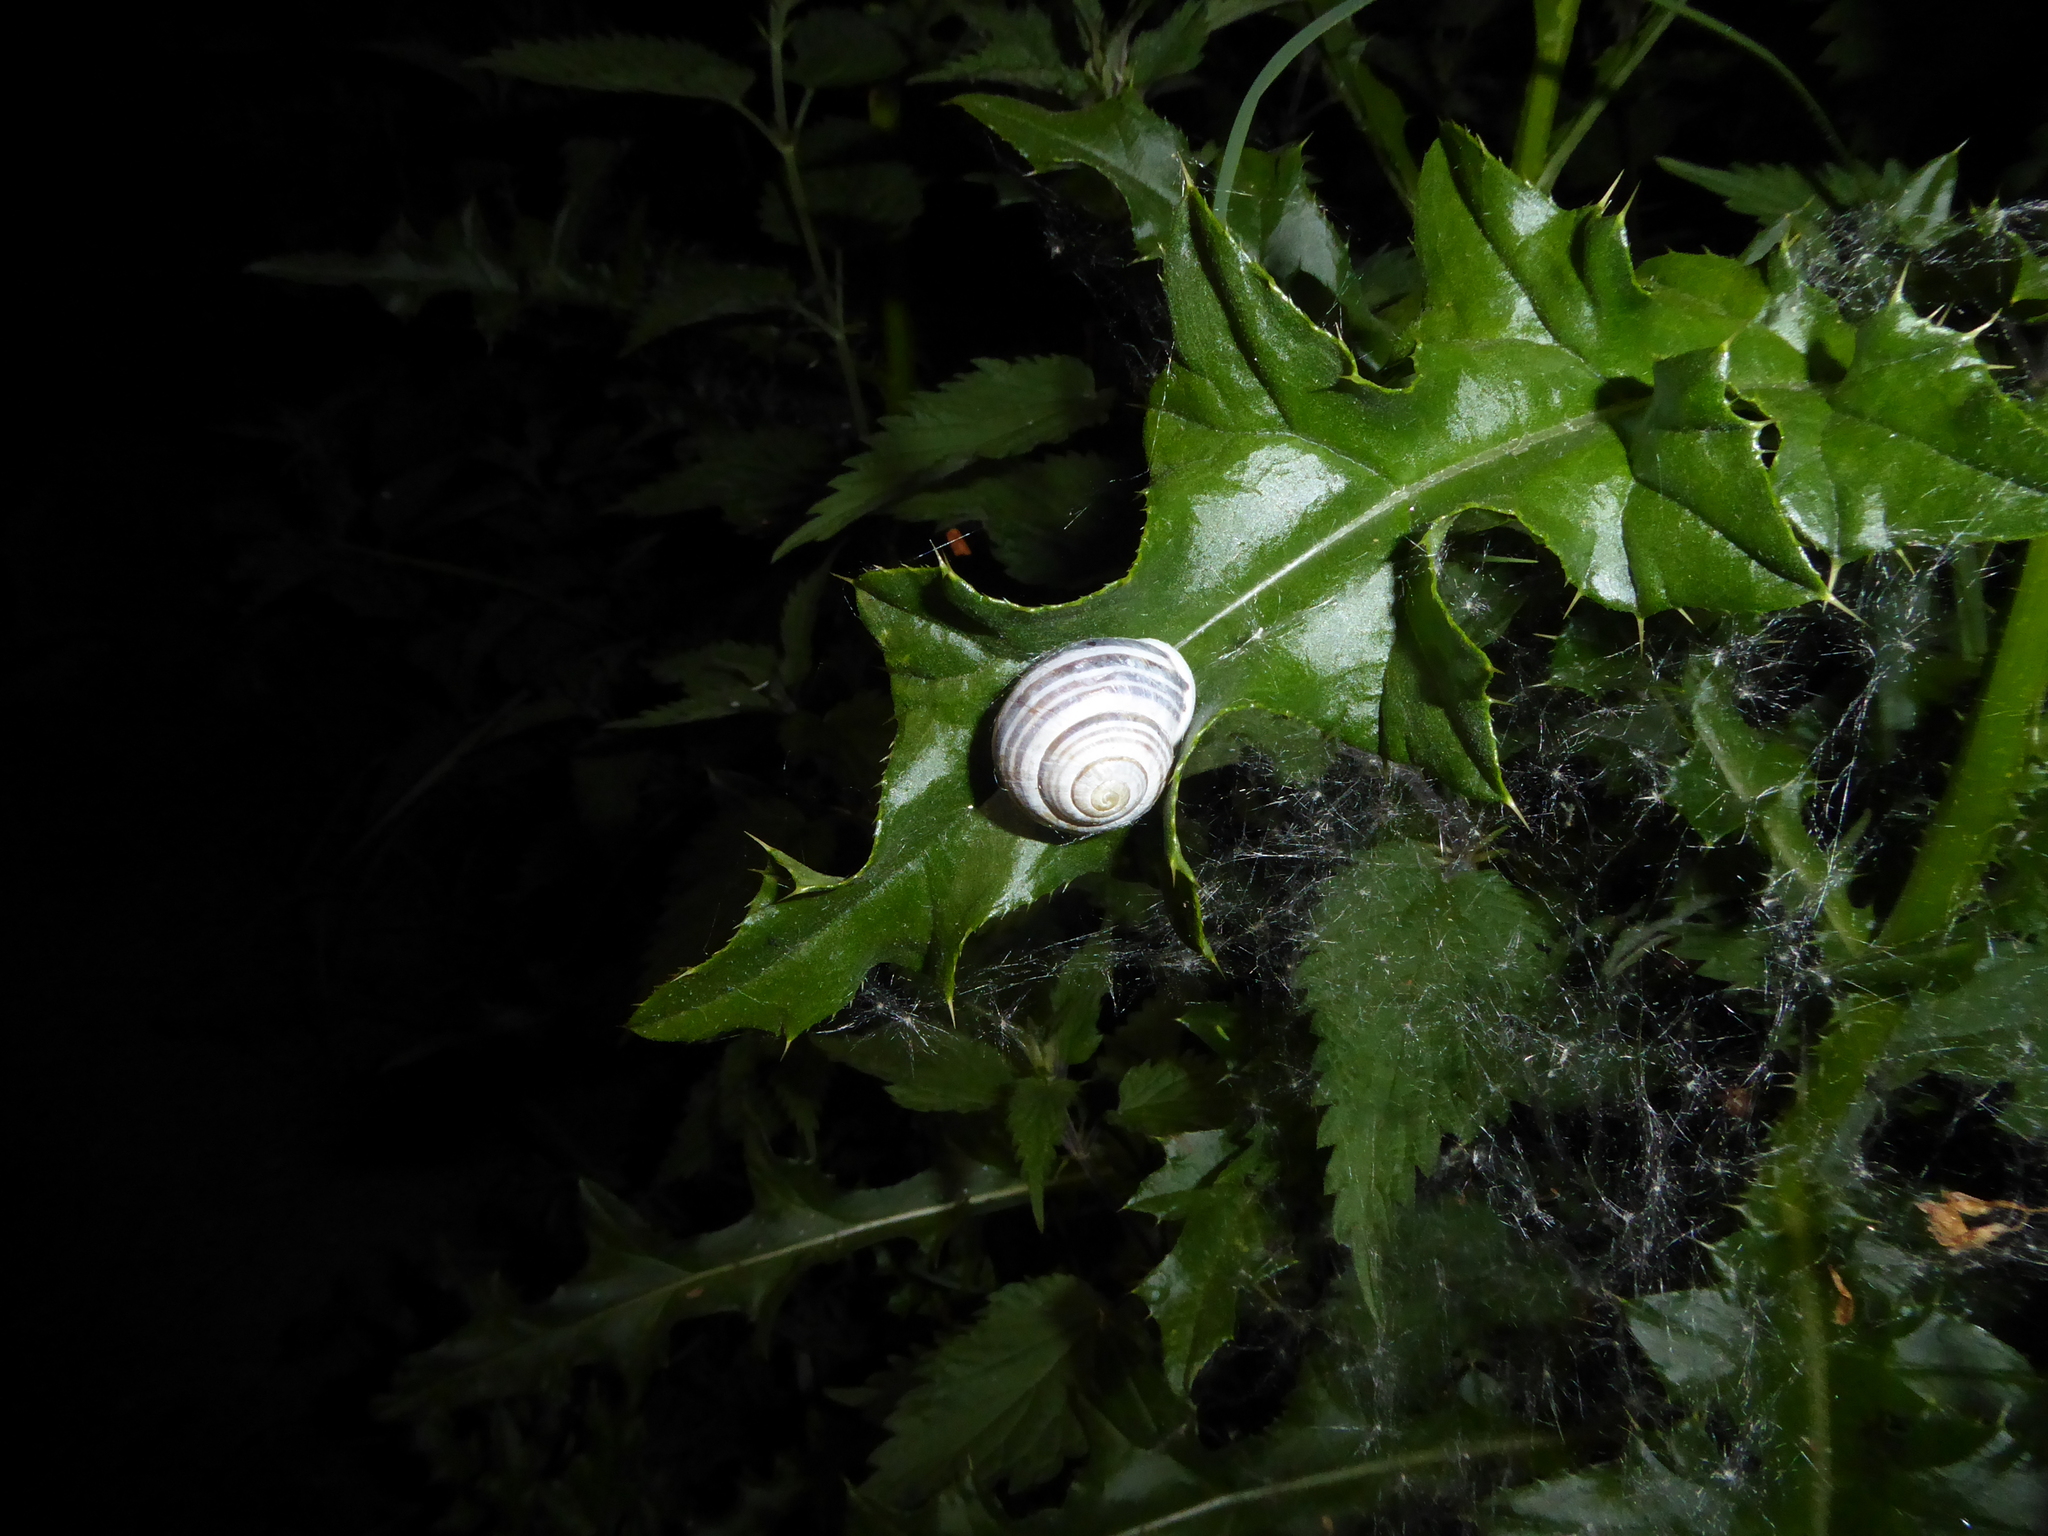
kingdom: Animalia
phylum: Mollusca
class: Gastropoda
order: Stylommatophora
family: Helicidae
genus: Cepaea
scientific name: Cepaea hortensis
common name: White-lip gardensnail
